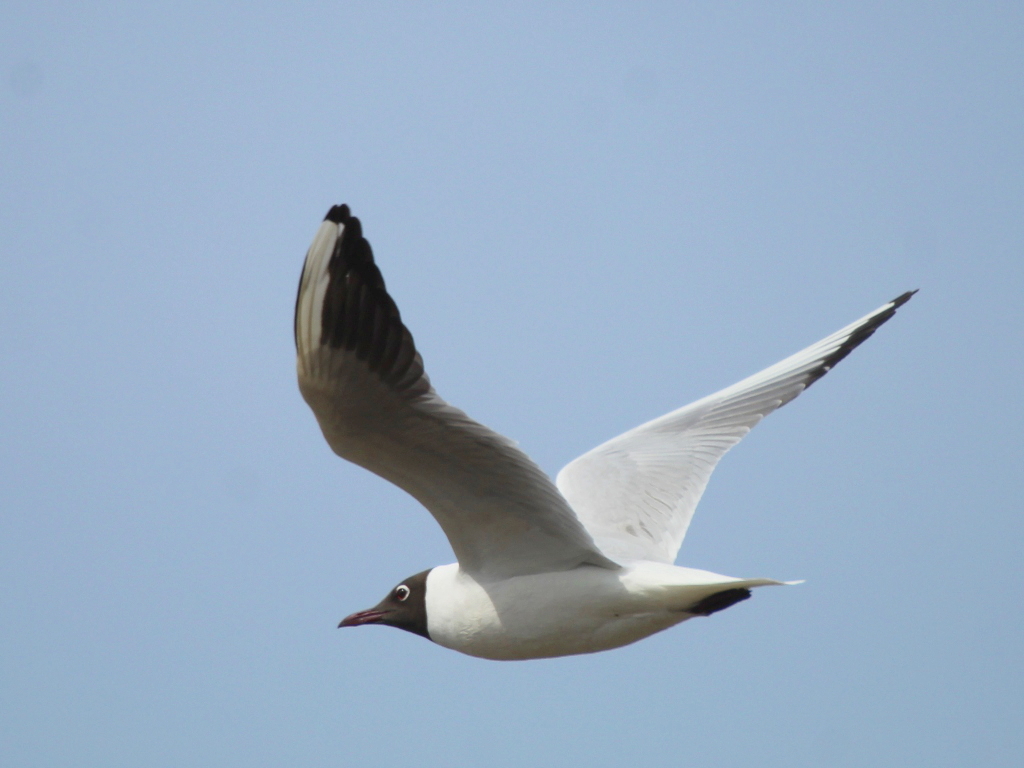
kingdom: Animalia
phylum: Chordata
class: Aves
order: Charadriiformes
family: Laridae
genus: Chroicocephalus
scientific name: Chroicocephalus ridibundus
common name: Black-headed gull
